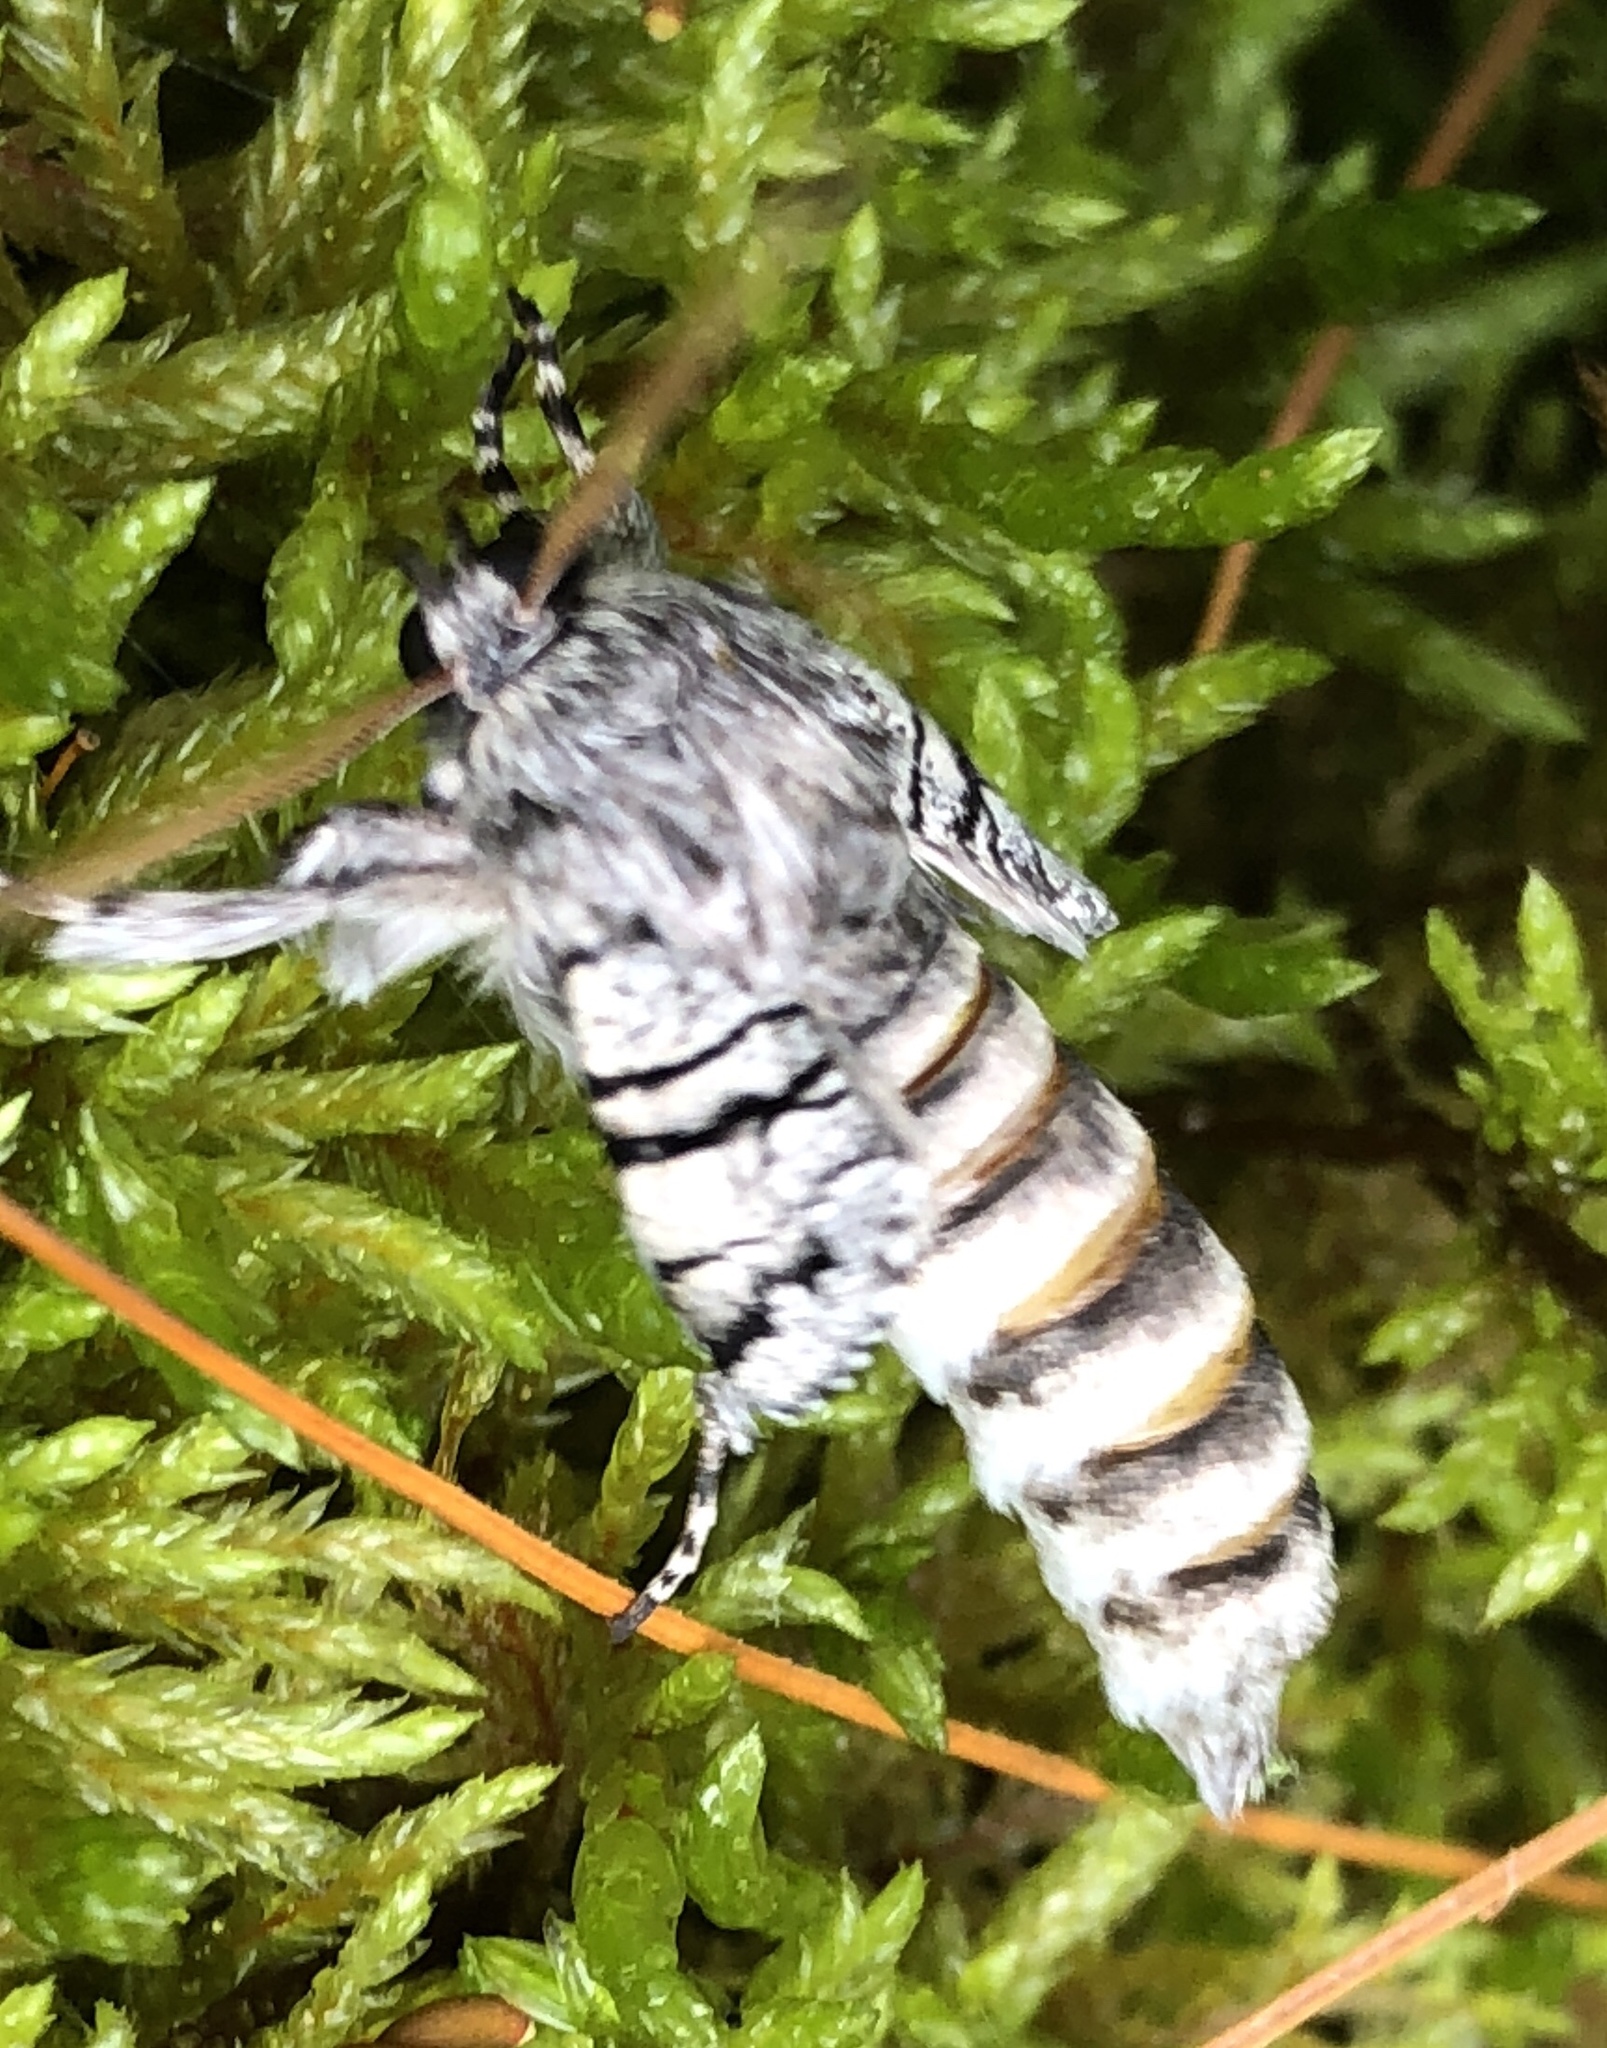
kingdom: Animalia
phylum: Arthropoda
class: Insecta
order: Lepidoptera
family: Noctuidae
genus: Panthea
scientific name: Panthea furcilla
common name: Eastern panthea moth
